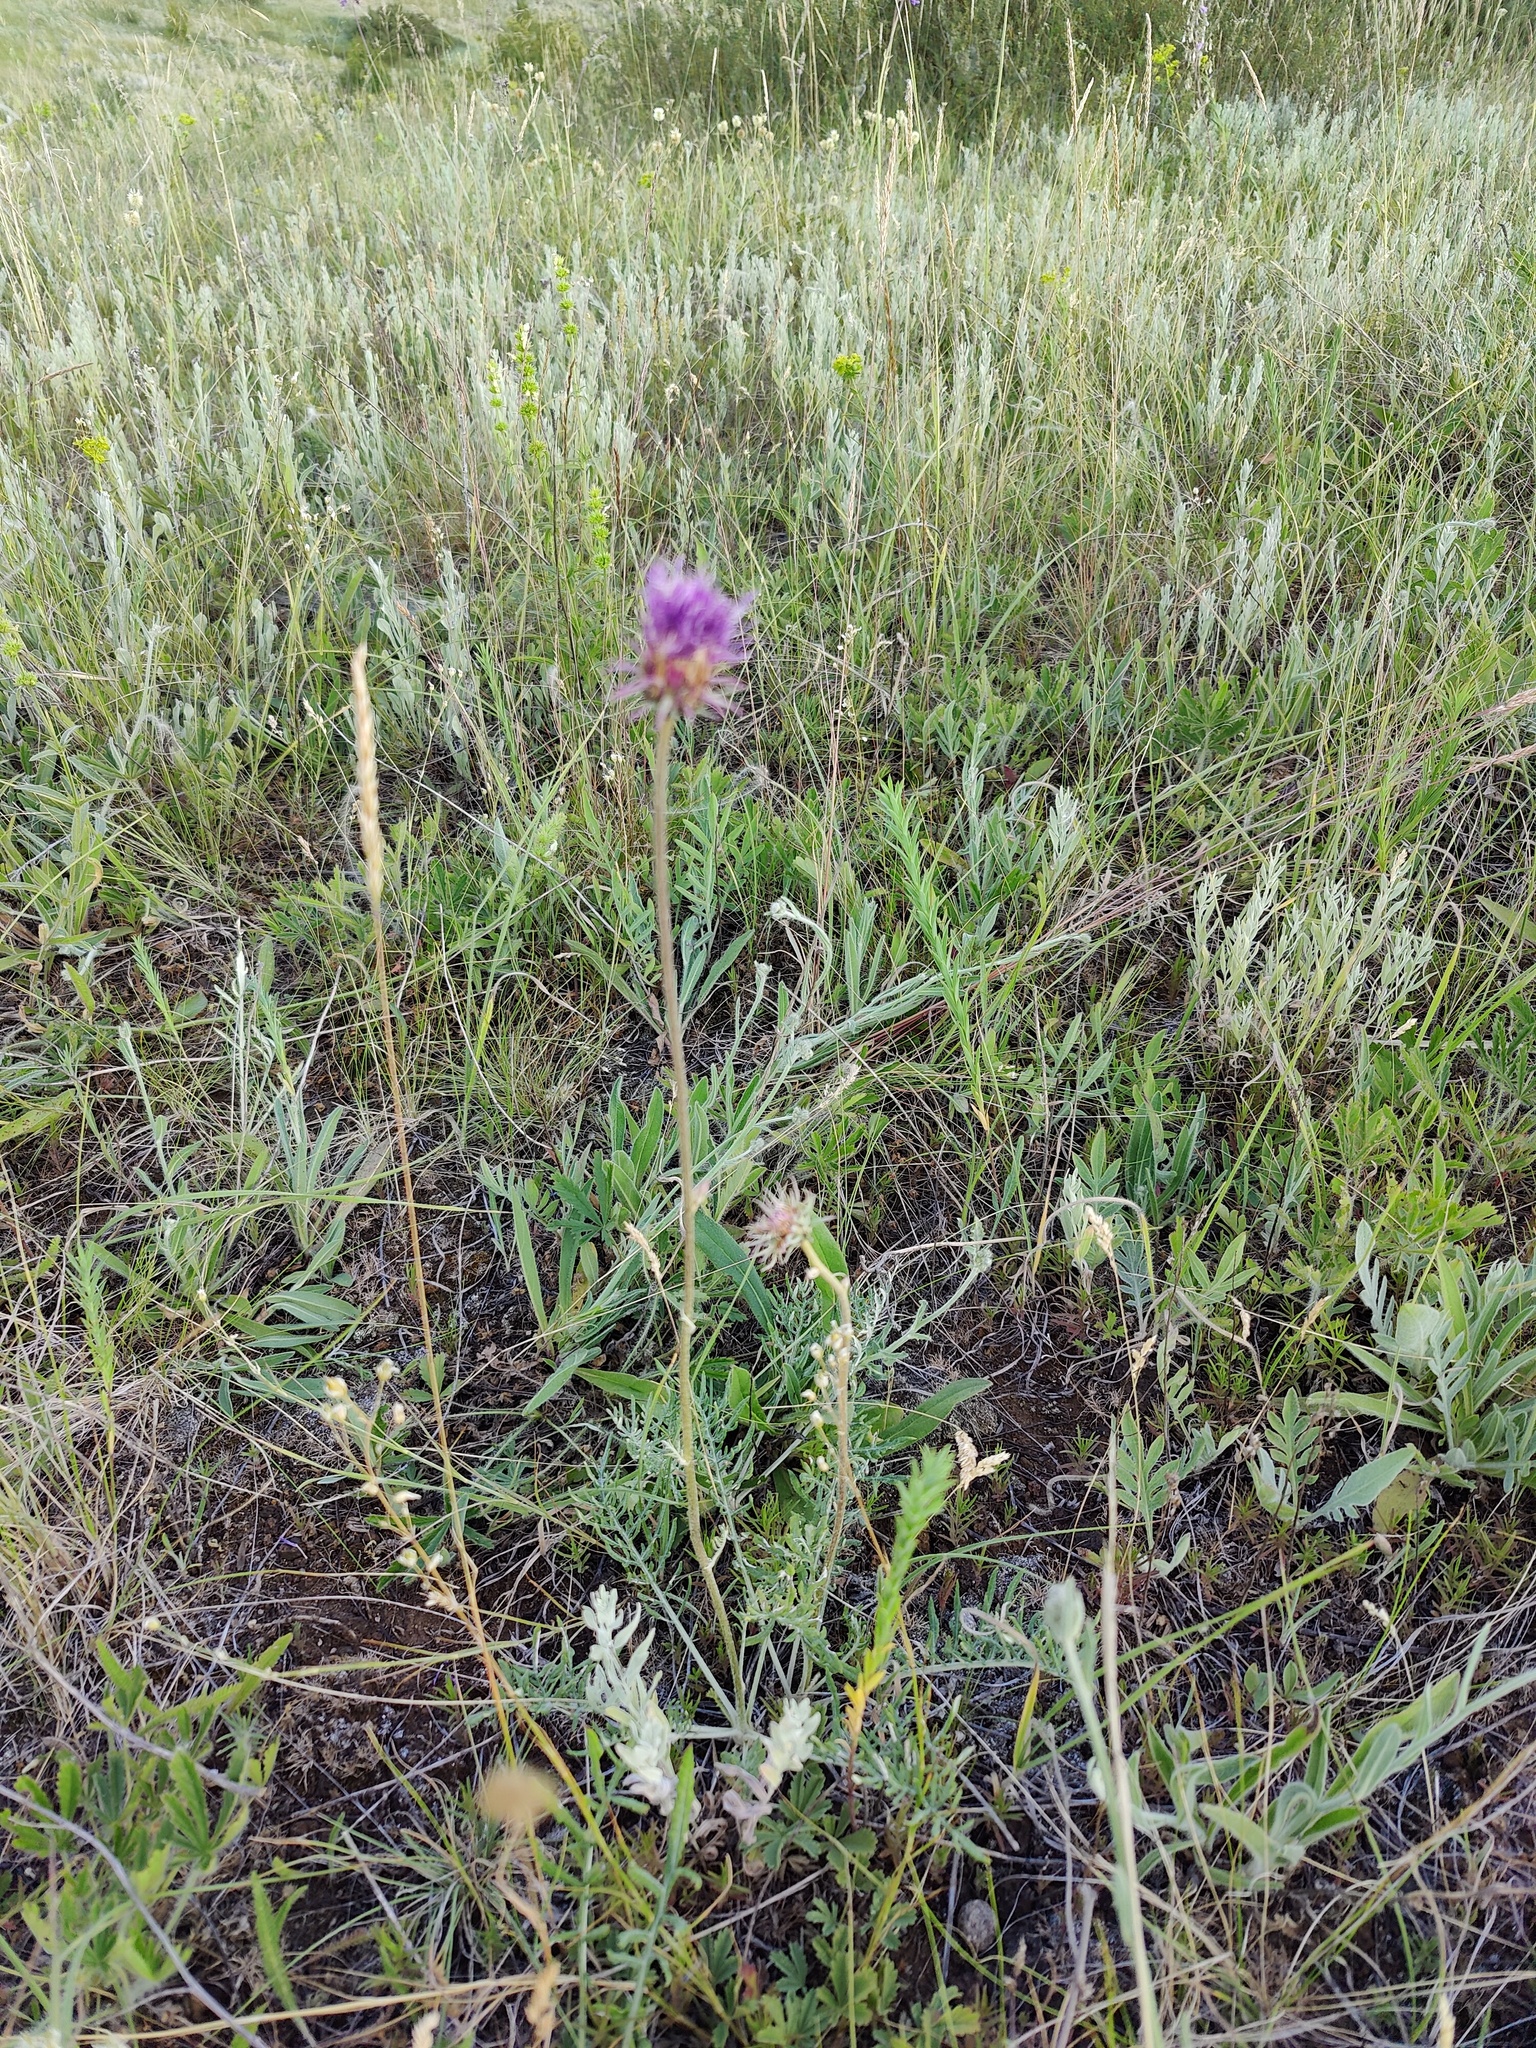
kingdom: Plantae
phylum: Tracheophyta
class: Magnoliopsida
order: Asterales
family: Asteraceae
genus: Jurinea
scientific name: Jurinea cyanoides
